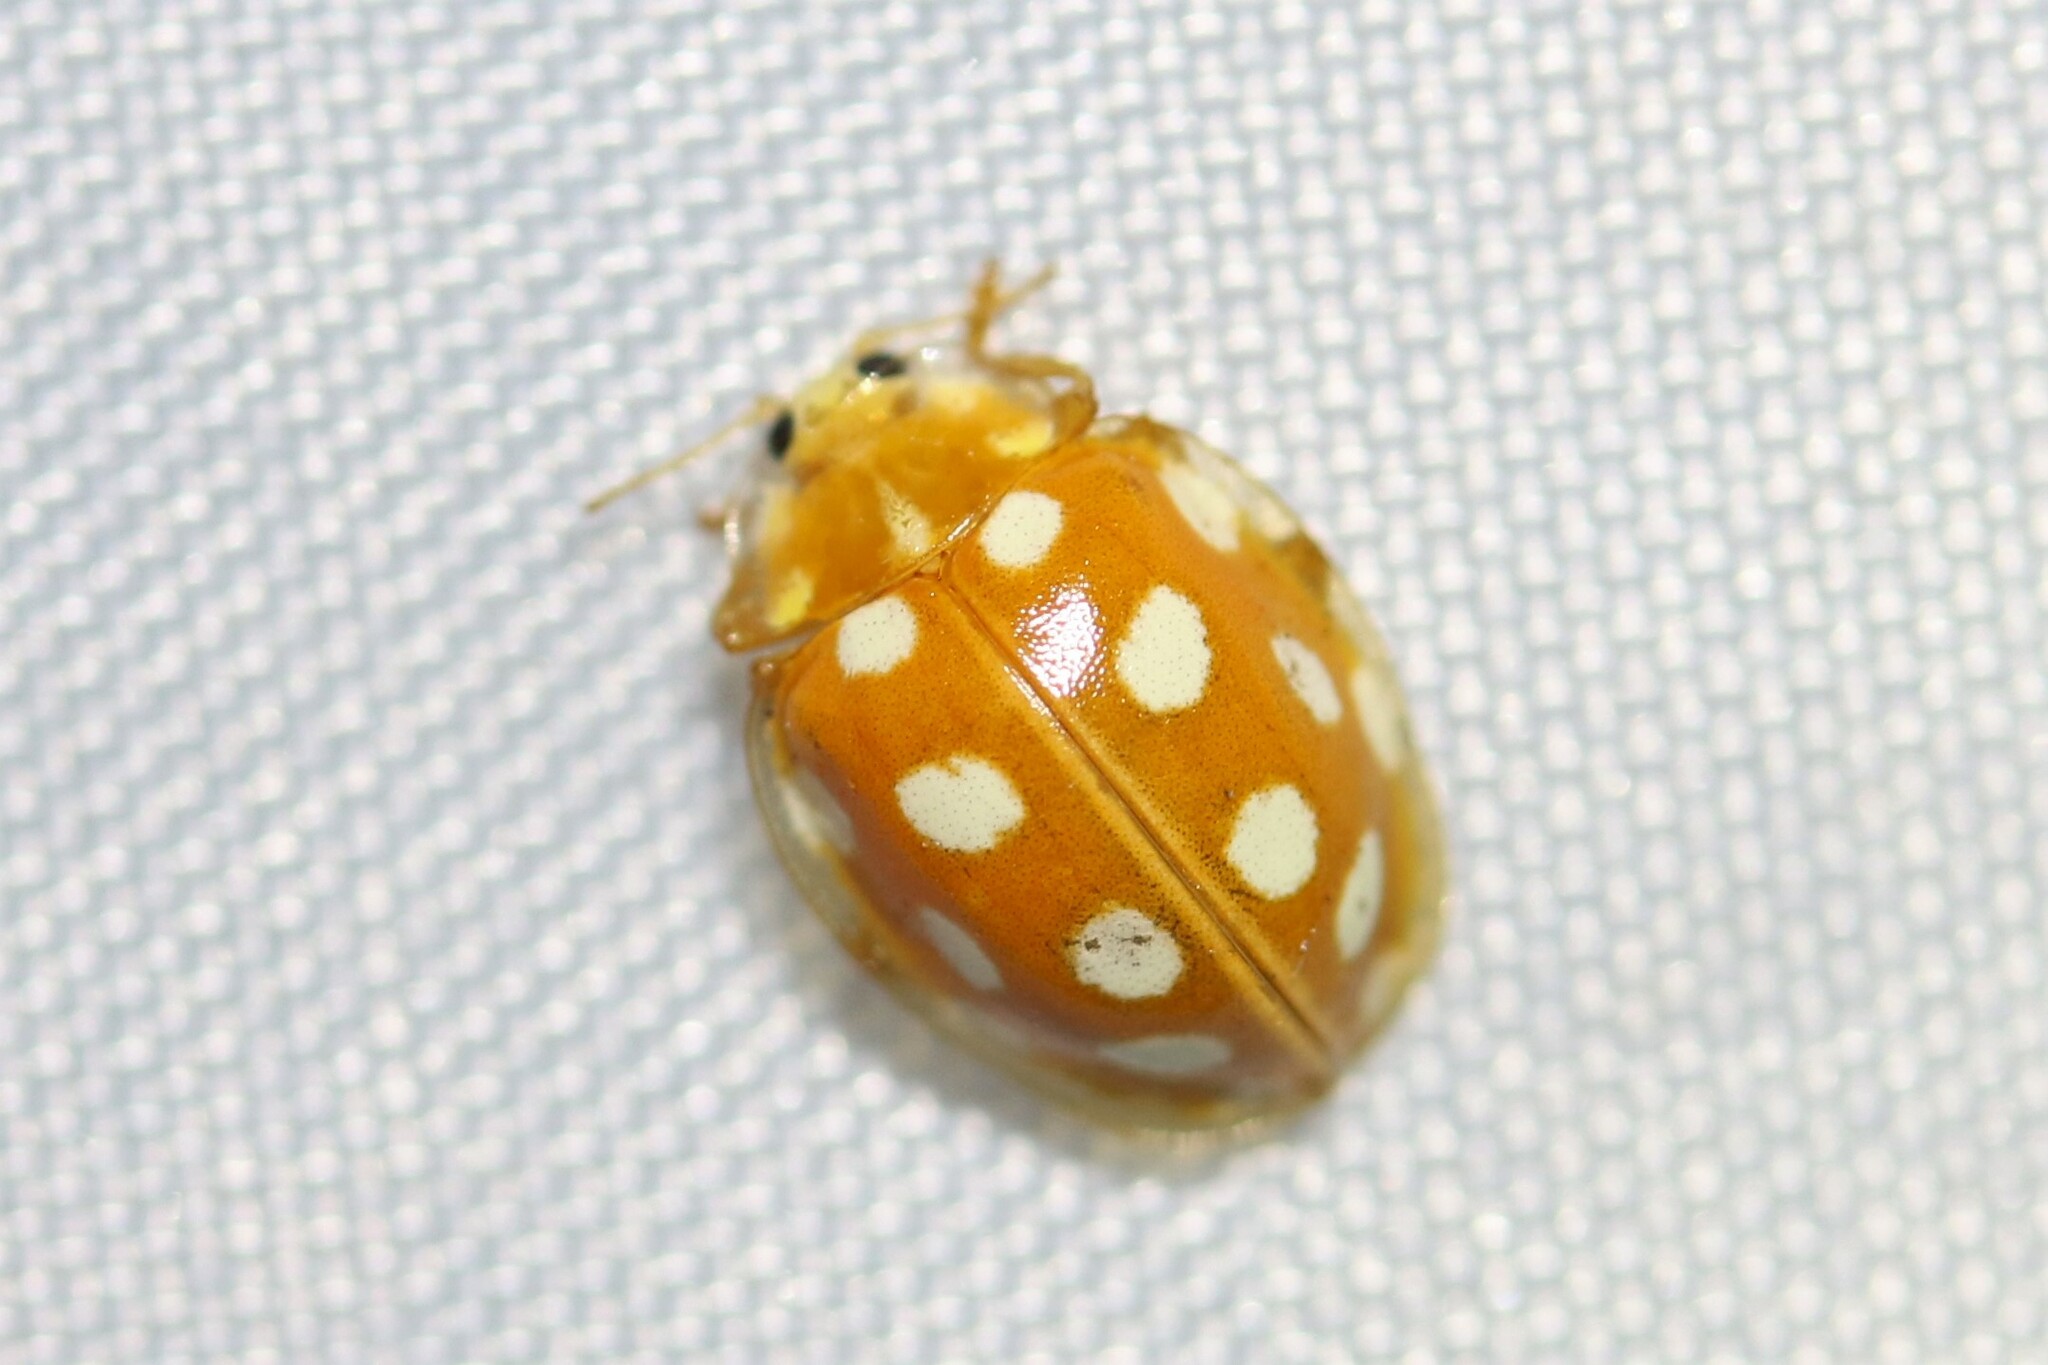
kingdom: Animalia
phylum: Arthropoda
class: Insecta
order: Coleoptera
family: Coccinellidae
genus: Halyzia
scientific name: Halyzia sedecimguttata
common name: Orange ladybird
